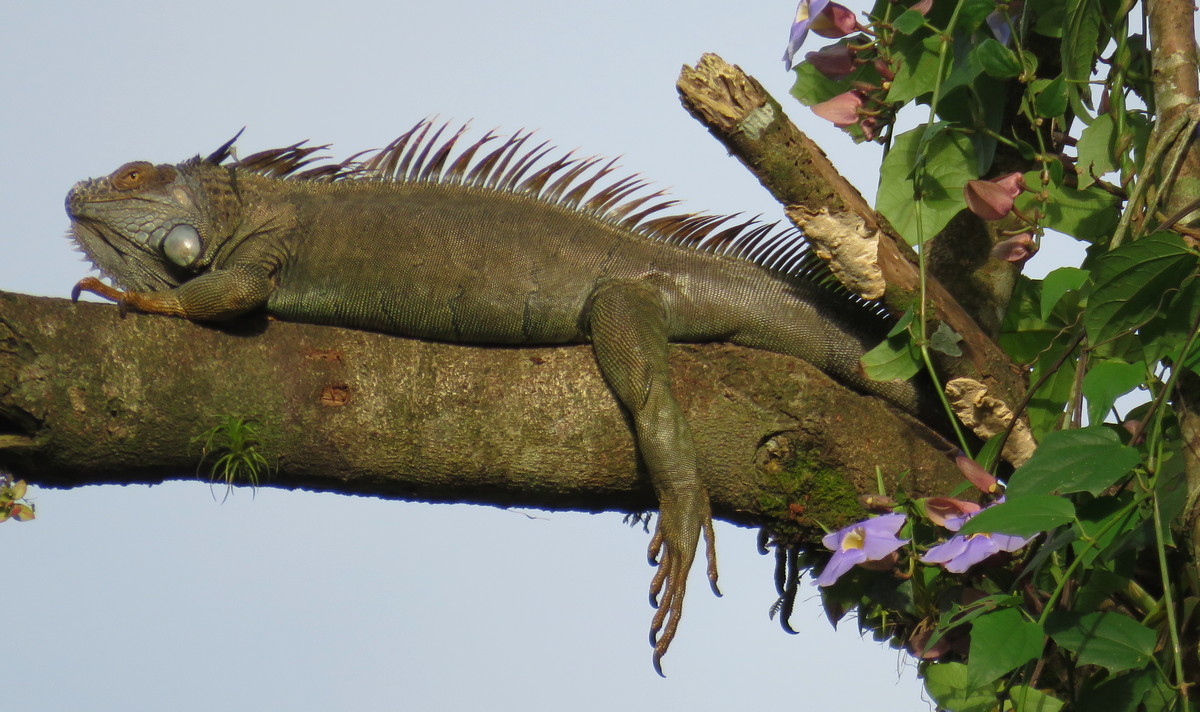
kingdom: Animalia
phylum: Chordata
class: Squamata
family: Iguanidae
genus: Iguana
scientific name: Iguana iguana
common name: Green iguana
